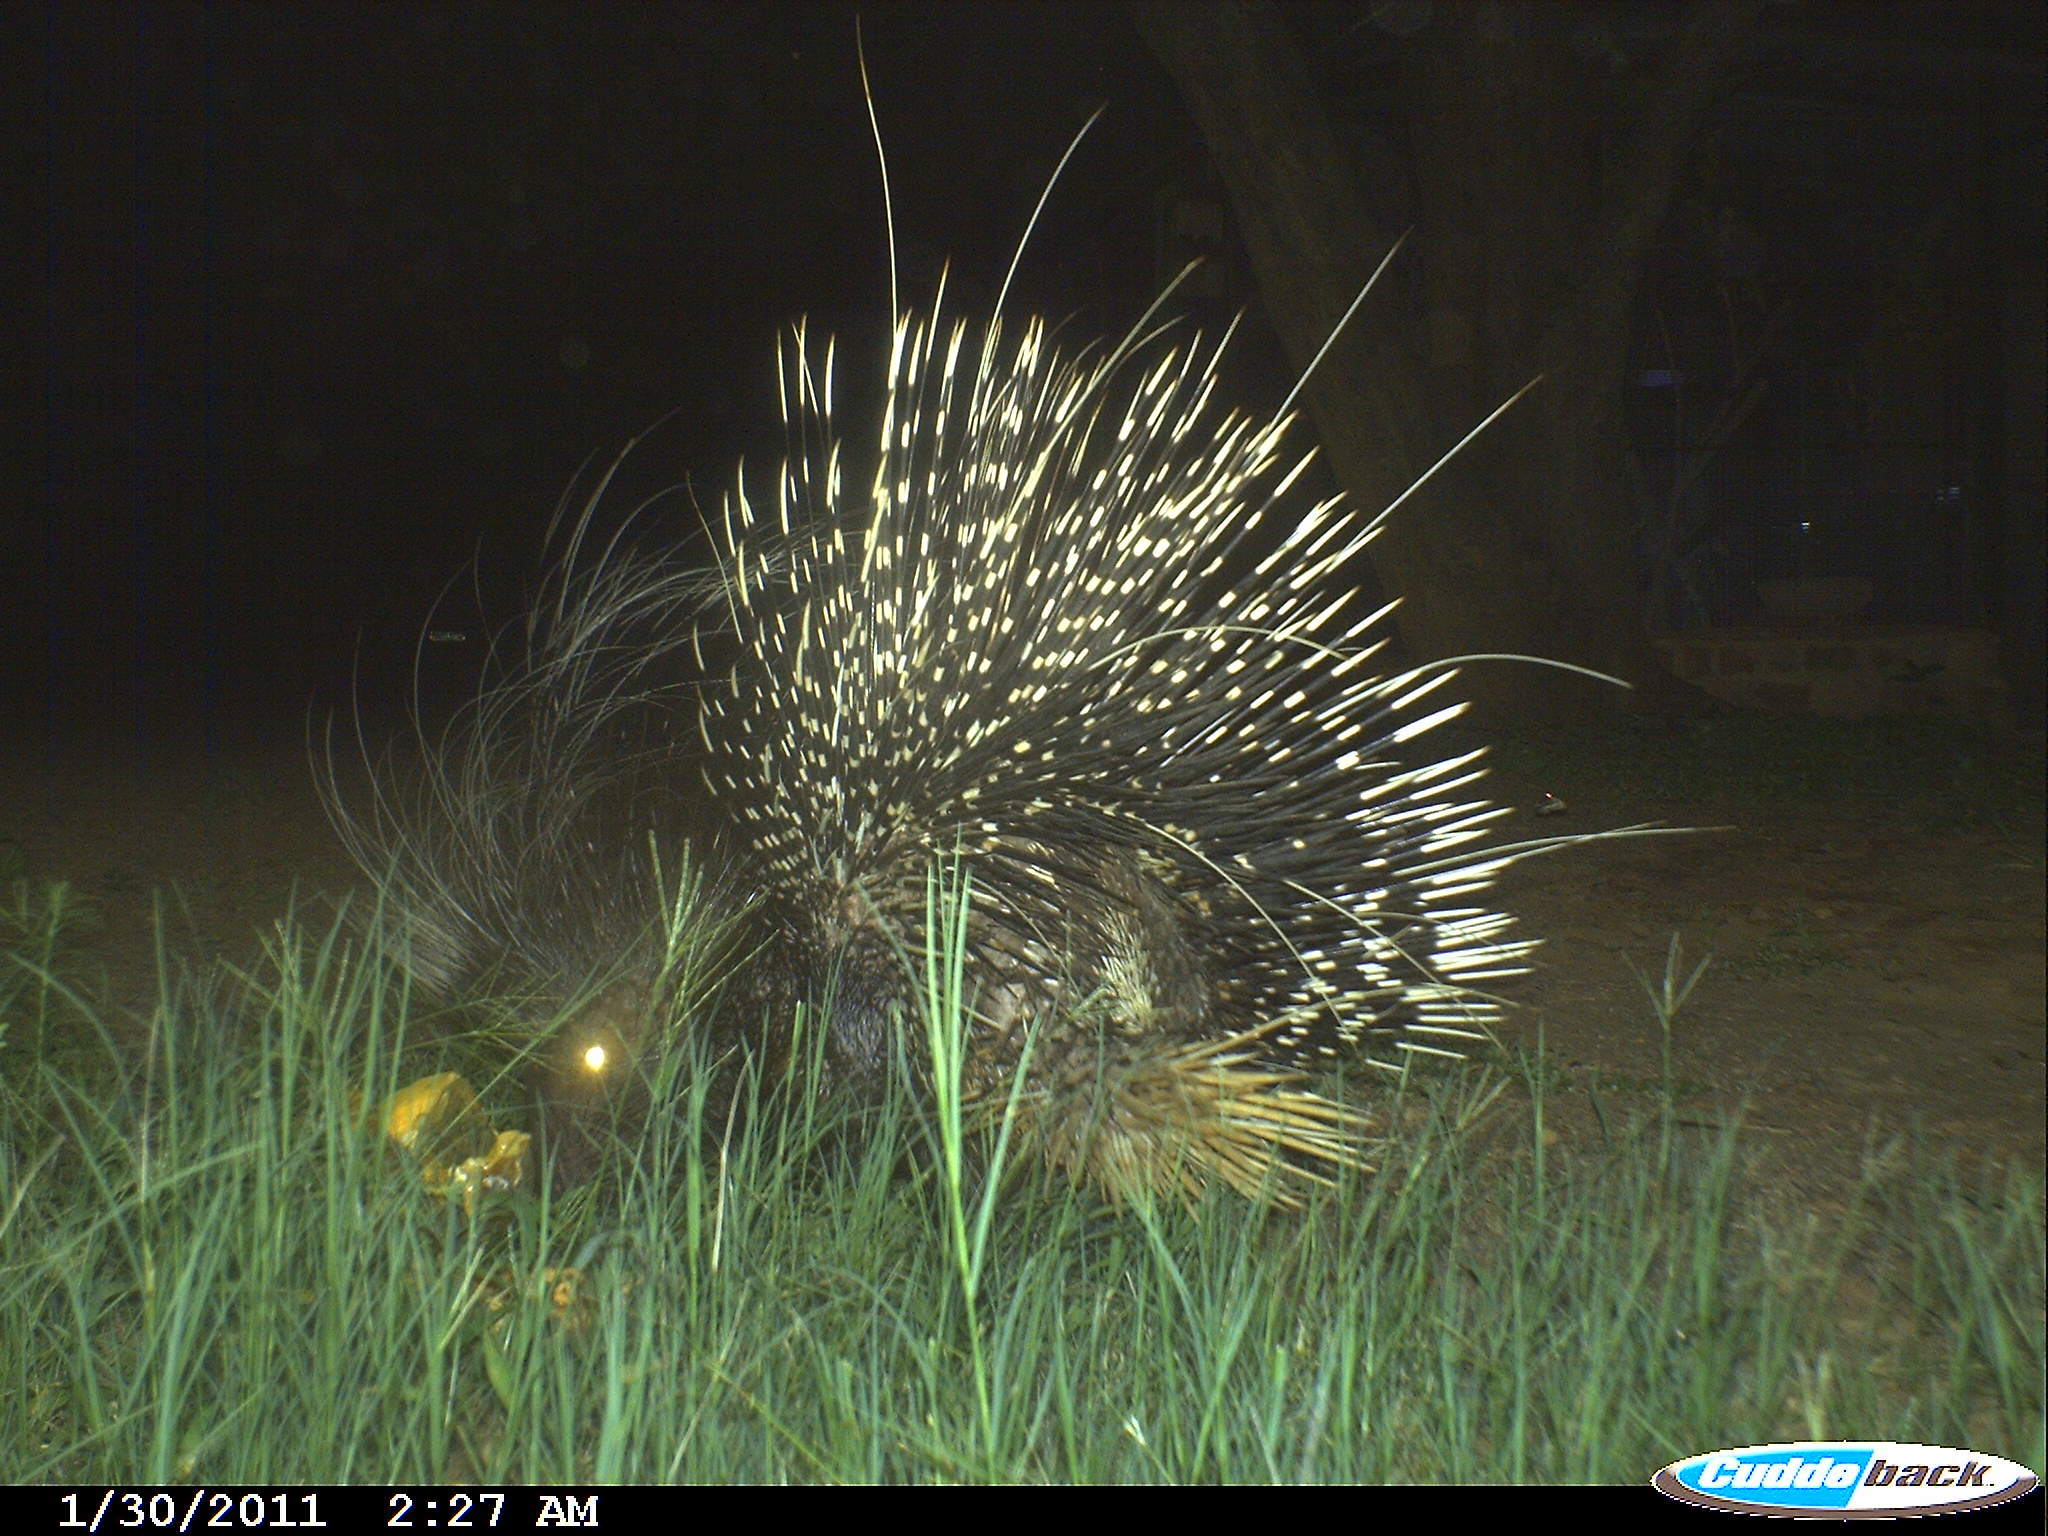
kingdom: Animalia
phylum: Chordata
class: Mammalia
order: Rodentia
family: Hystricidae
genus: Hystrix
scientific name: Hystrix africaeaustralis
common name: Cape porcupine
